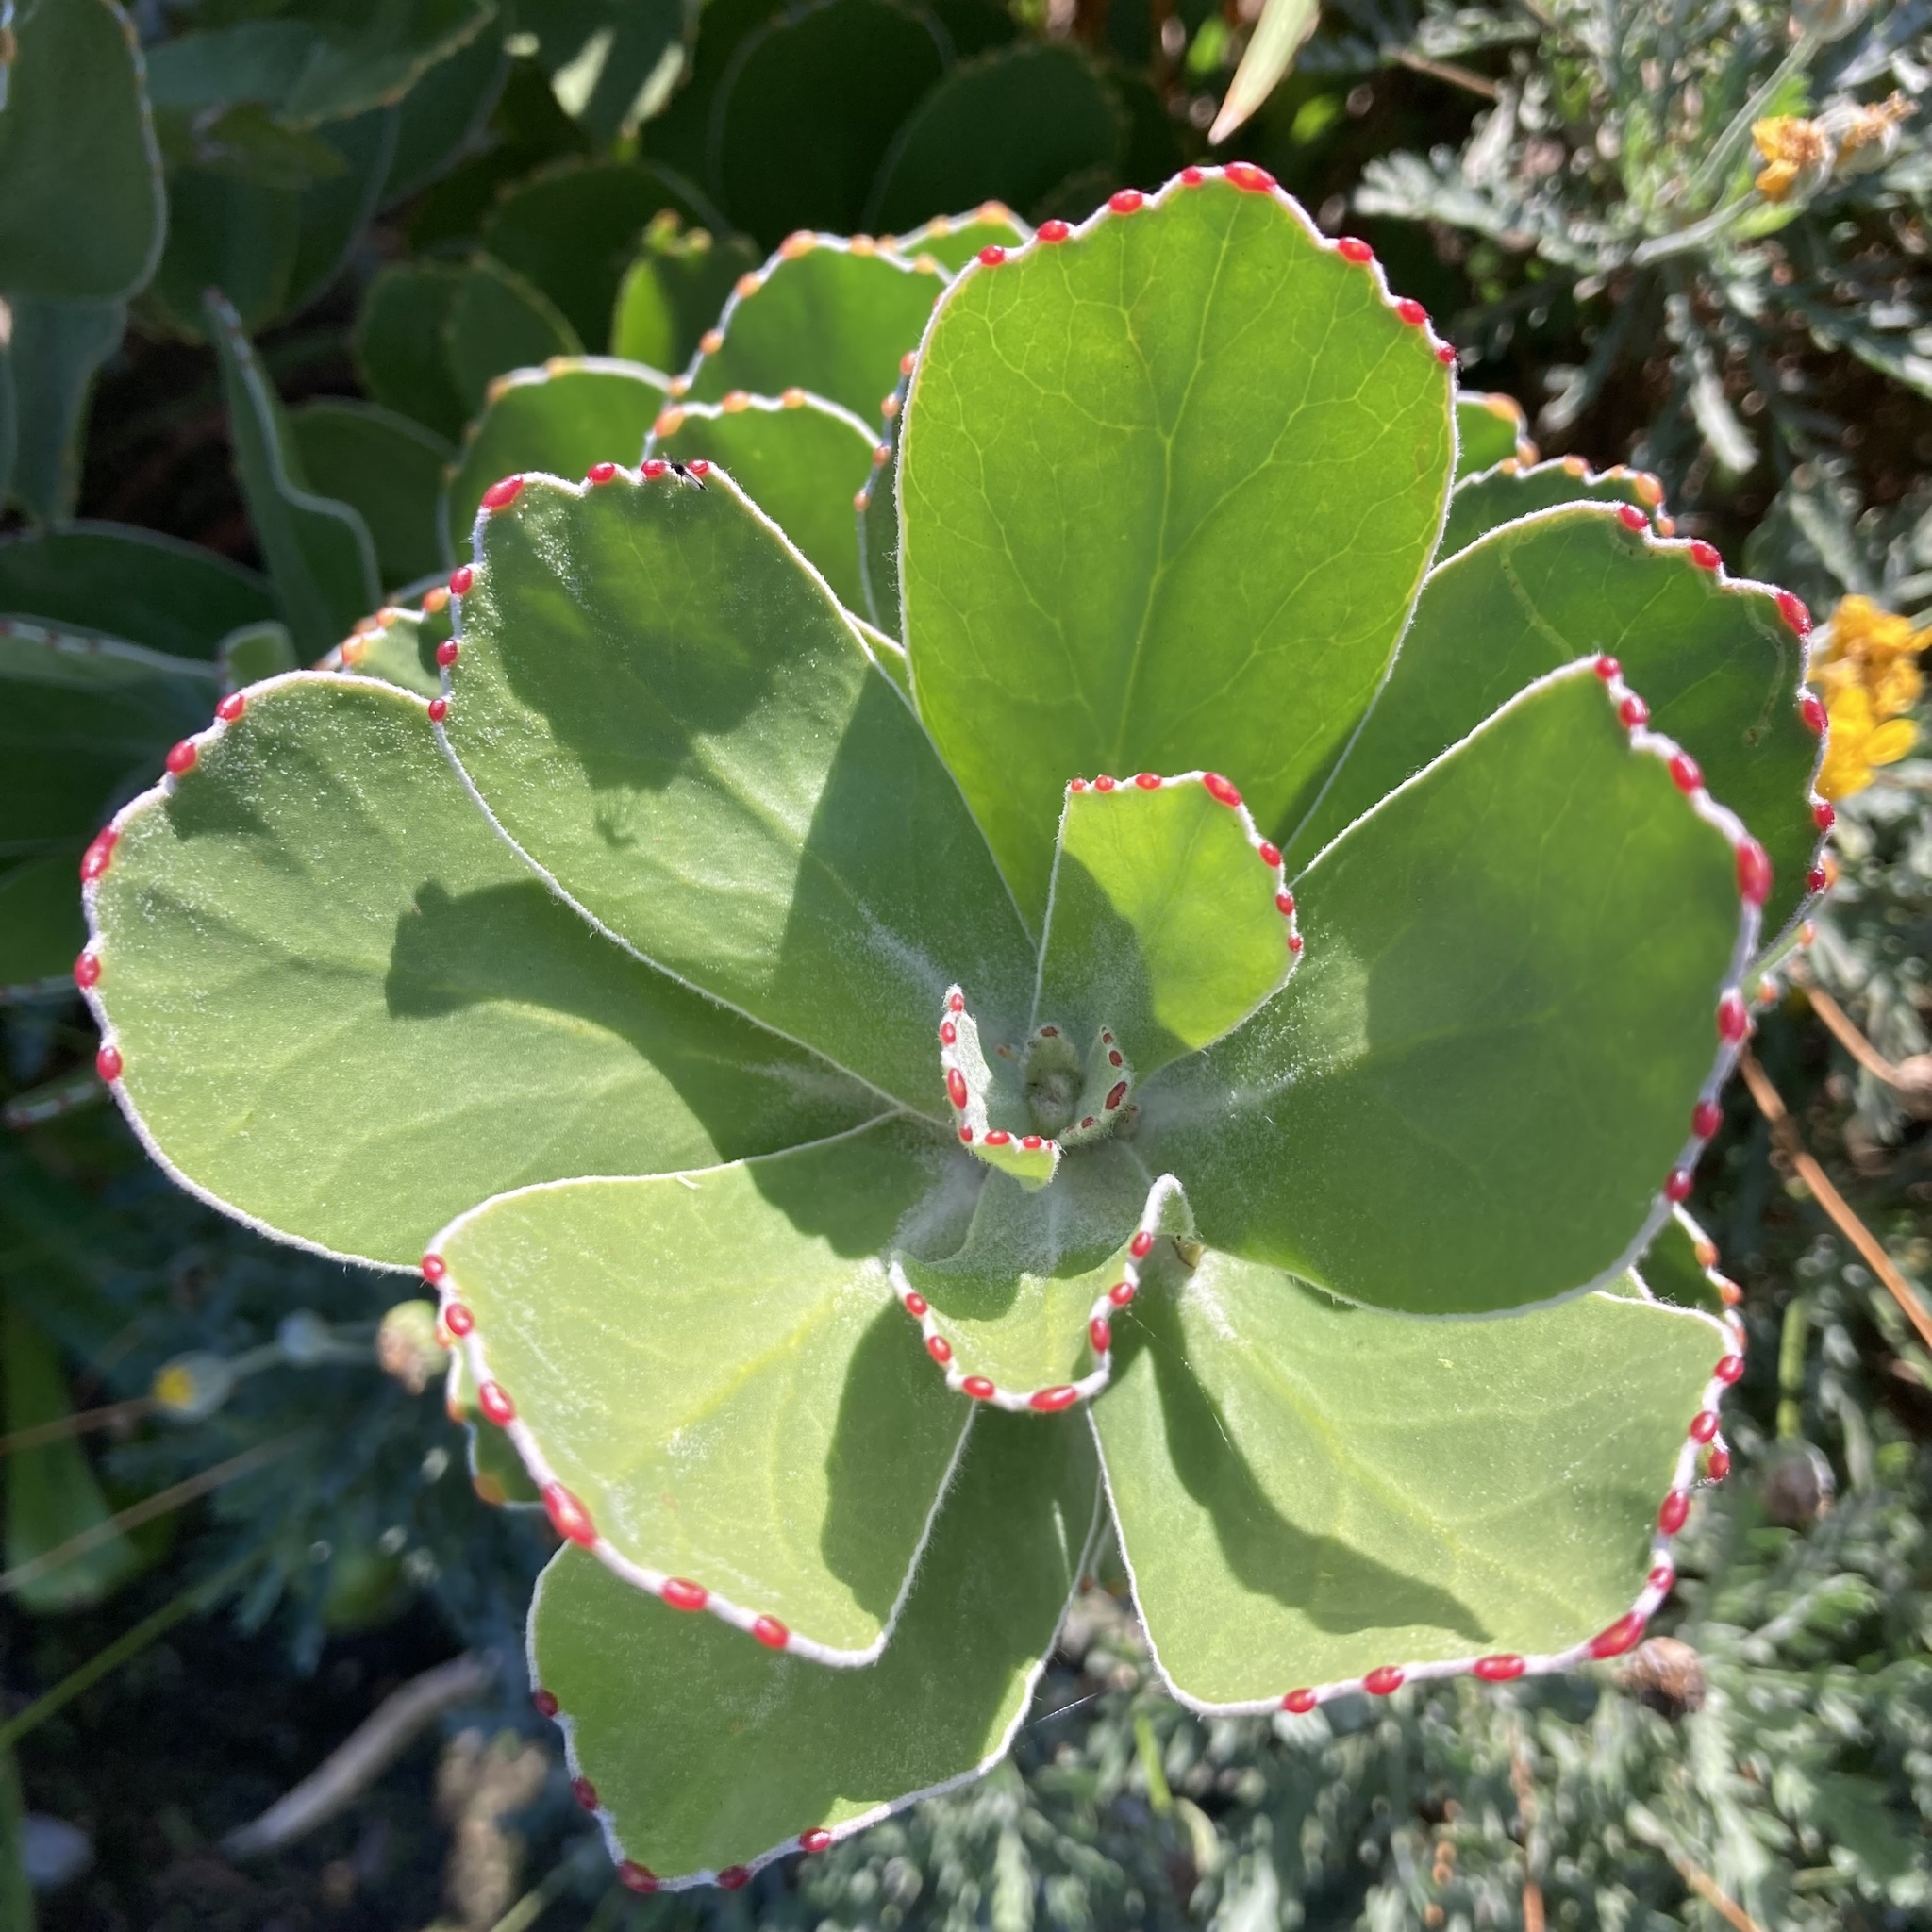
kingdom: Plantae
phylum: Tracheophyta
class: Magnoliopsida
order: Proteales
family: Proteaceae
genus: Leucospermum
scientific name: Leucospermum conocarpodendron
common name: Tree pincushion
